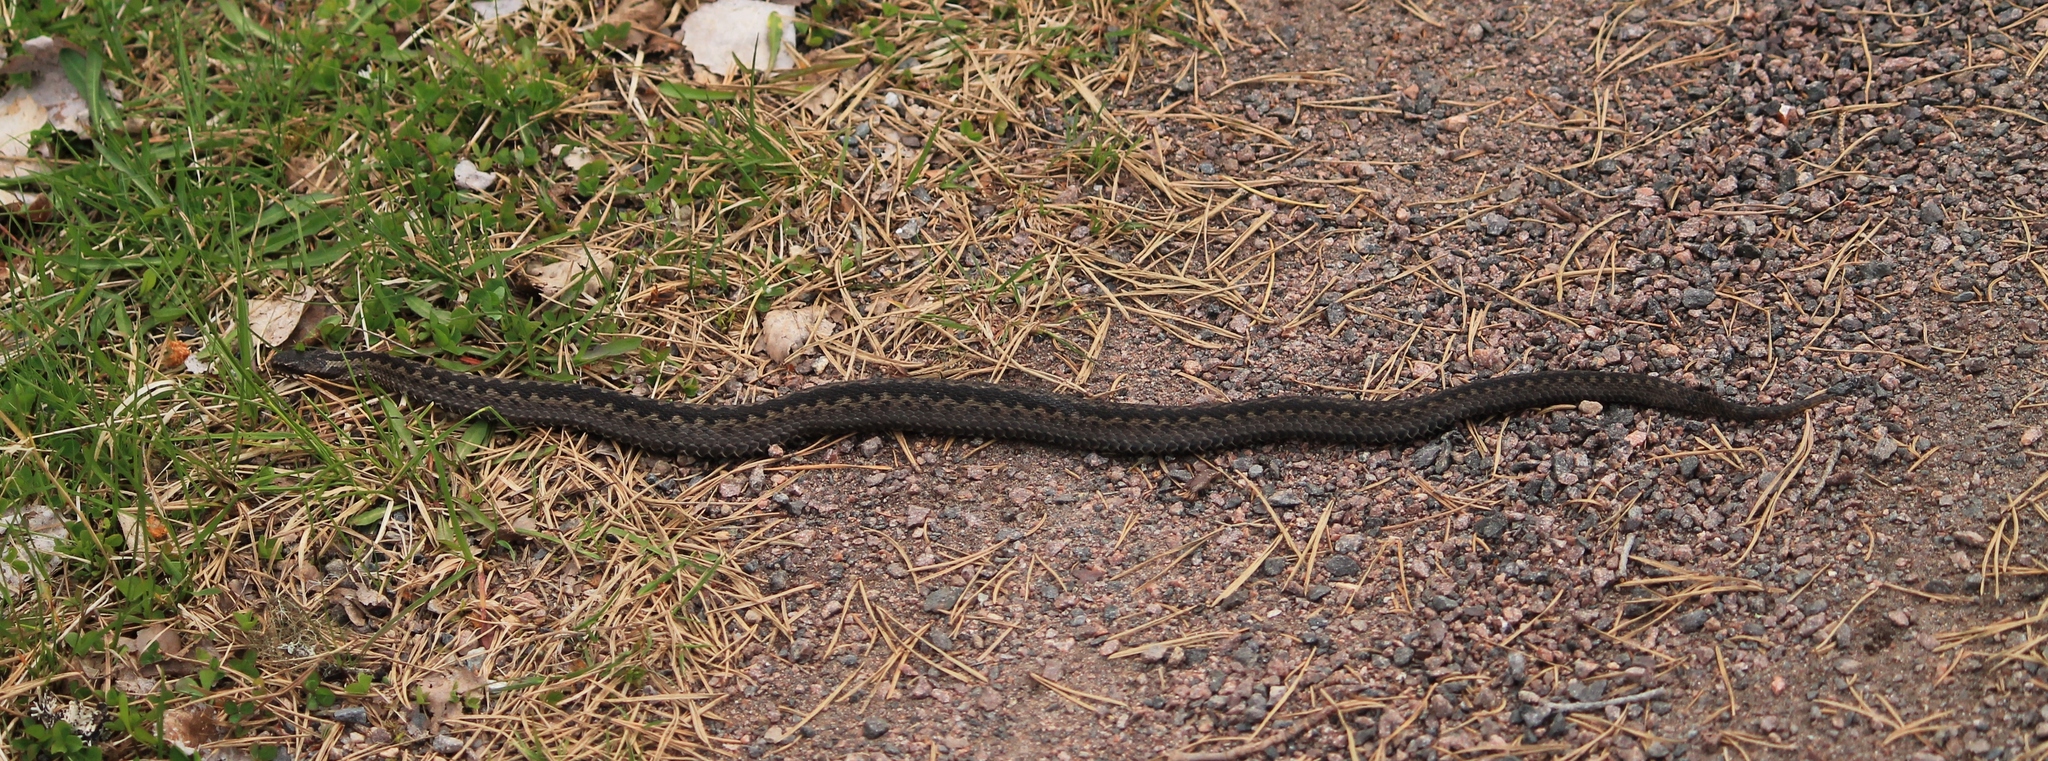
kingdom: Animalia
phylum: Chordata
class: Squamata
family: Viperidae
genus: Vipera
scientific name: Vipera berus
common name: Adder
